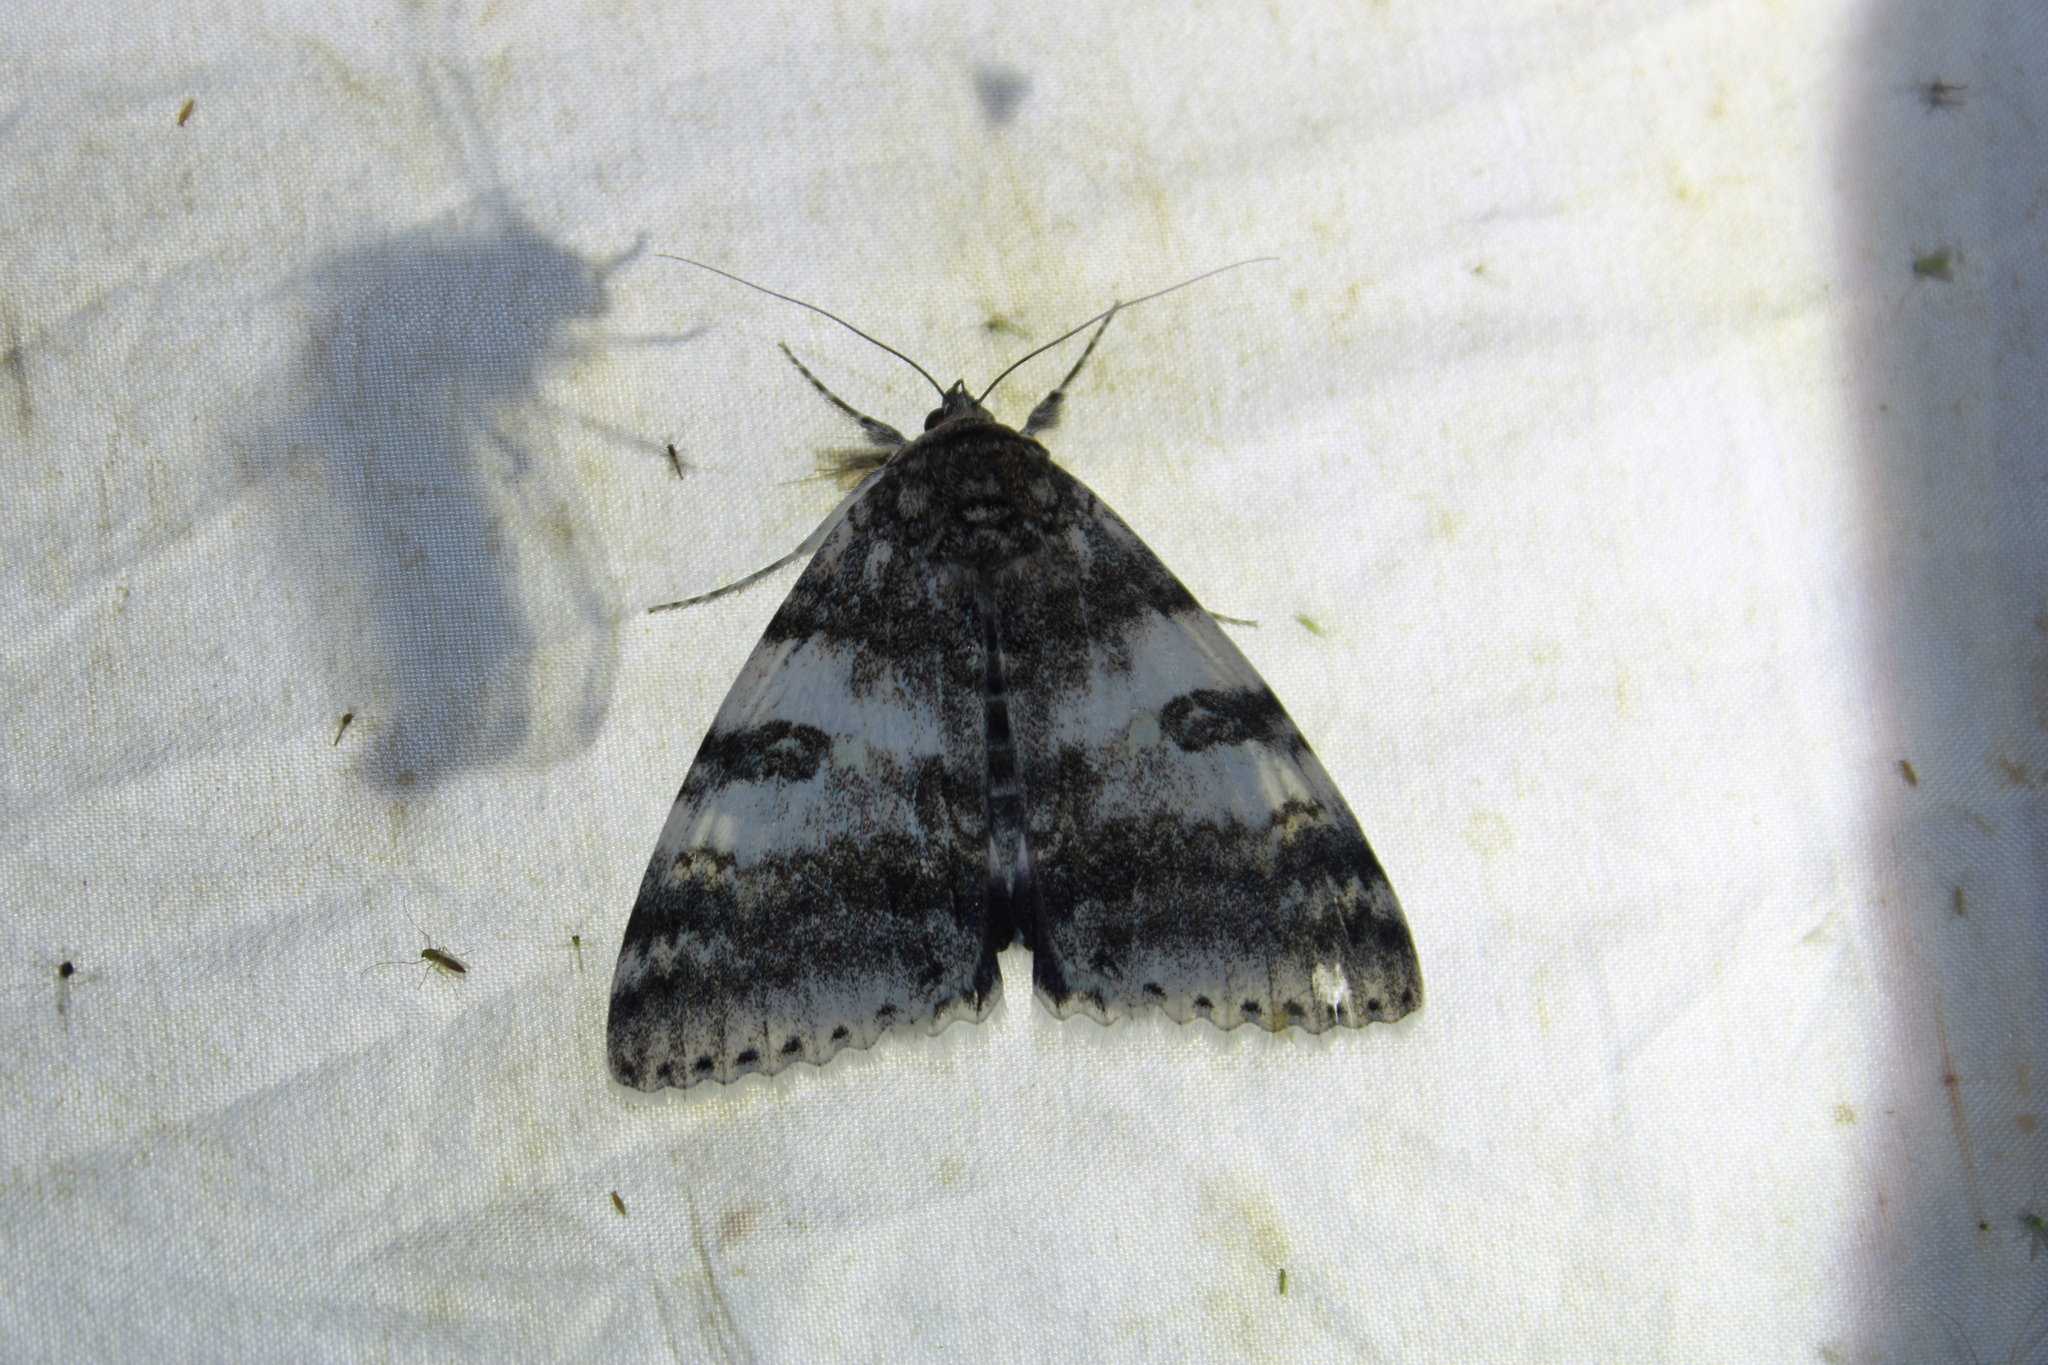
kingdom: Animalia
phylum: Arthropoda
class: Insecta
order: Lepidoptera
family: Erebidae
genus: Catocala
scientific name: Catocala relicta
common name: White underwing
